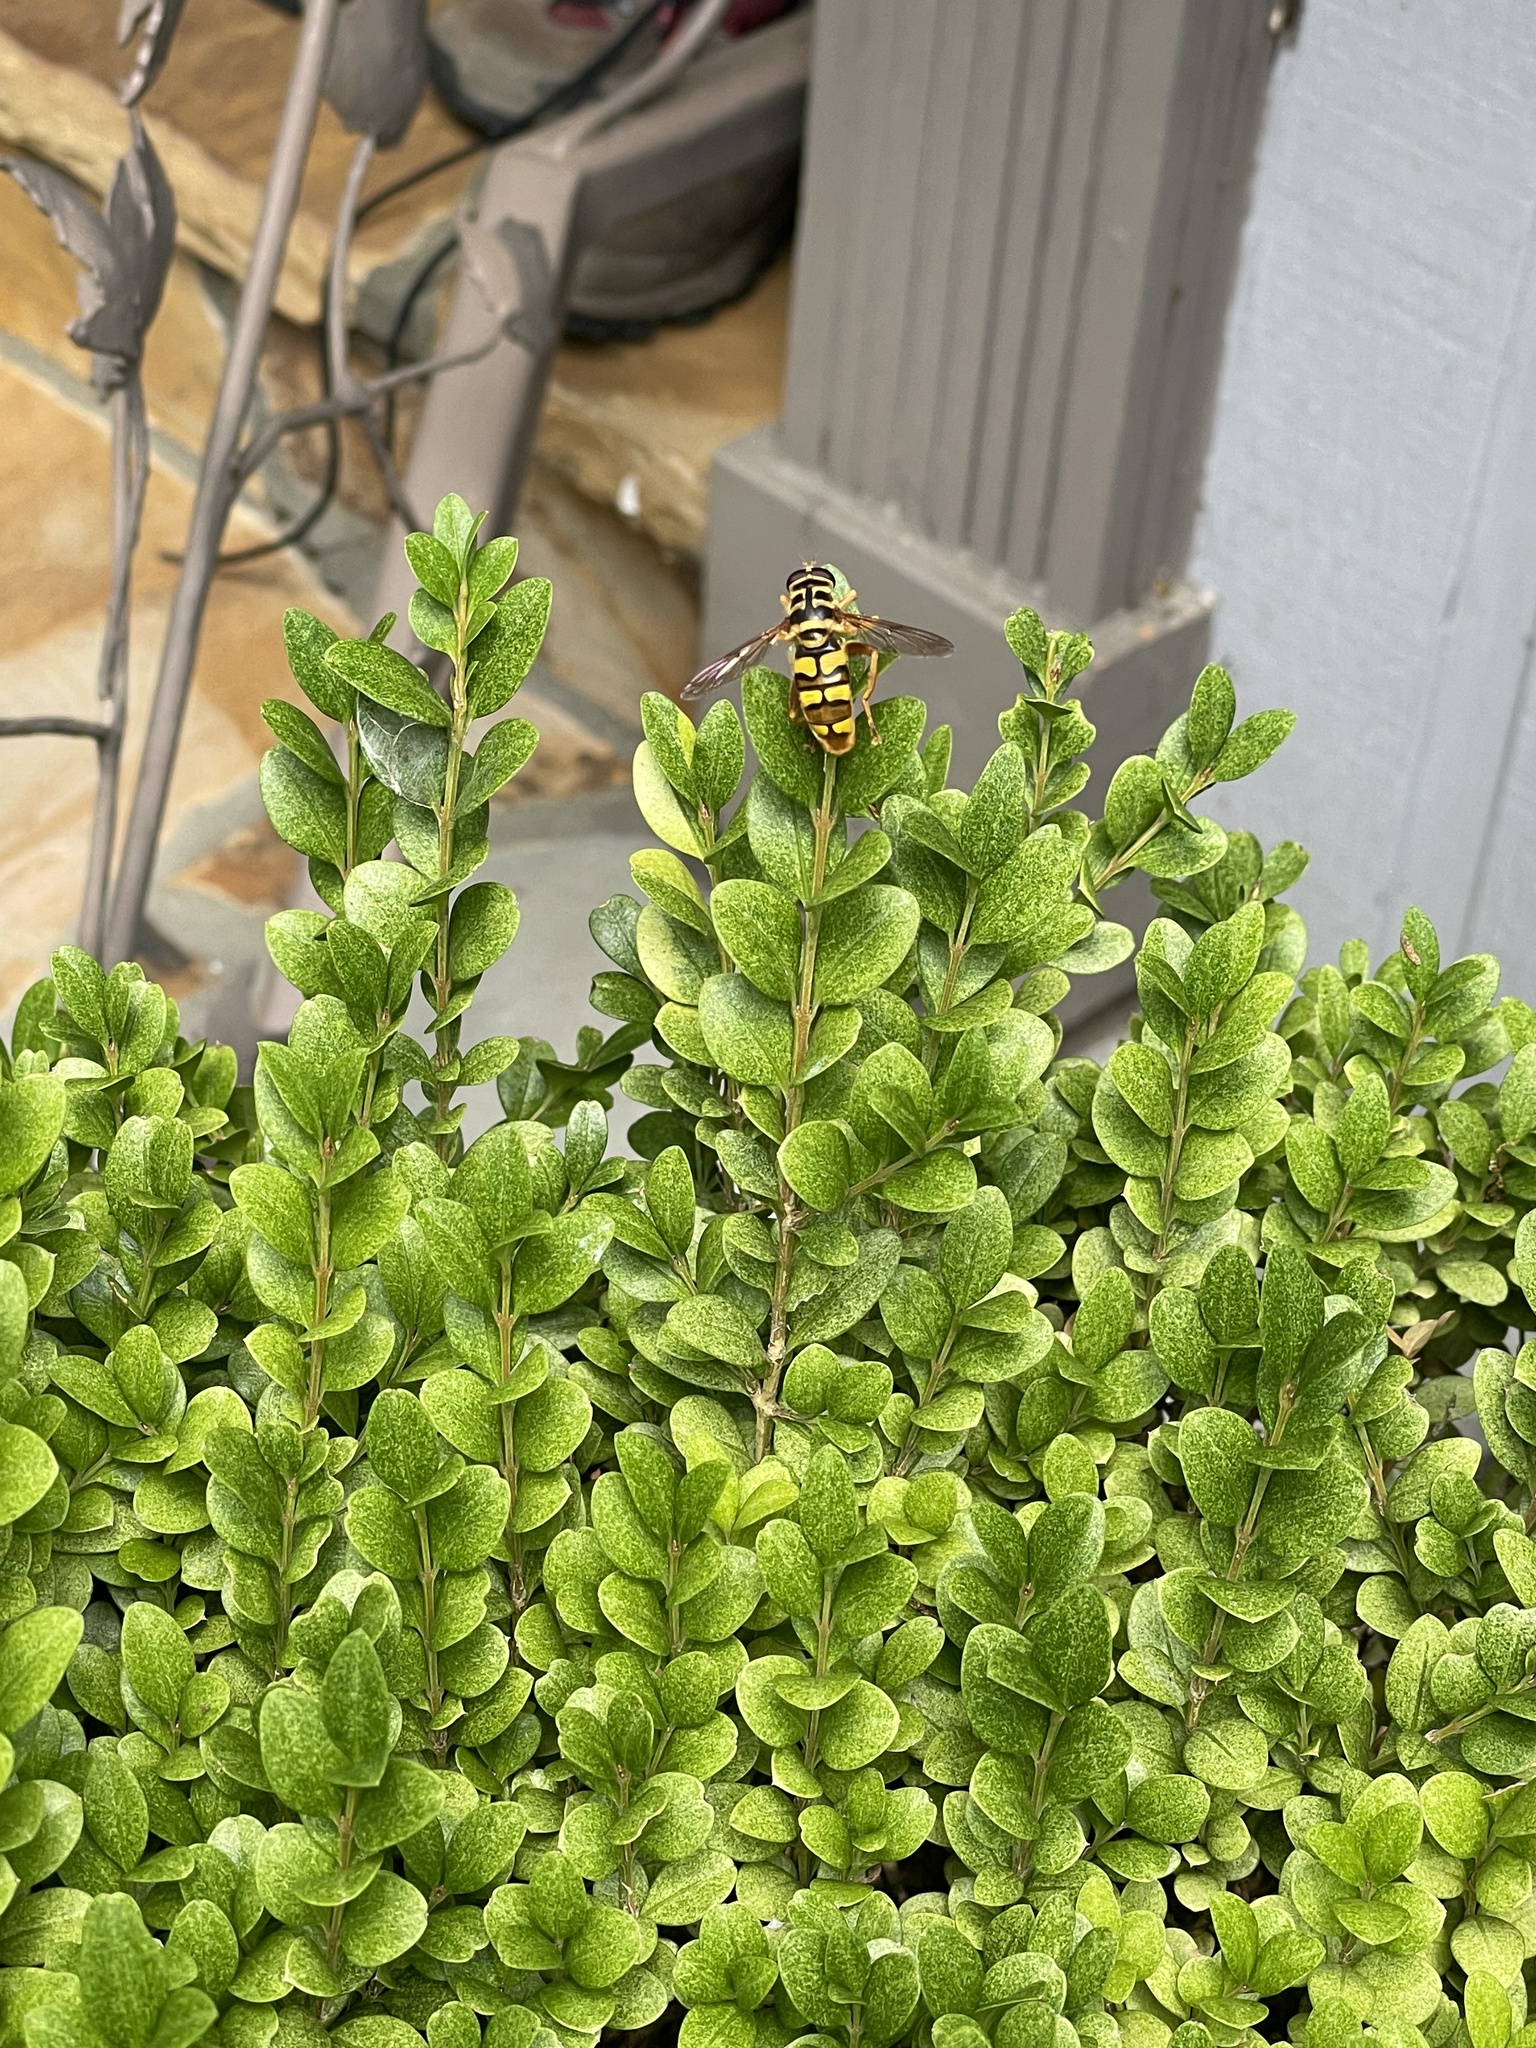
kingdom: Animalia
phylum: Arthropoda
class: Insecta
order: Diptera
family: Syrphidae
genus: Milesia
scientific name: Milesia virginiensis
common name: Virginia giant
